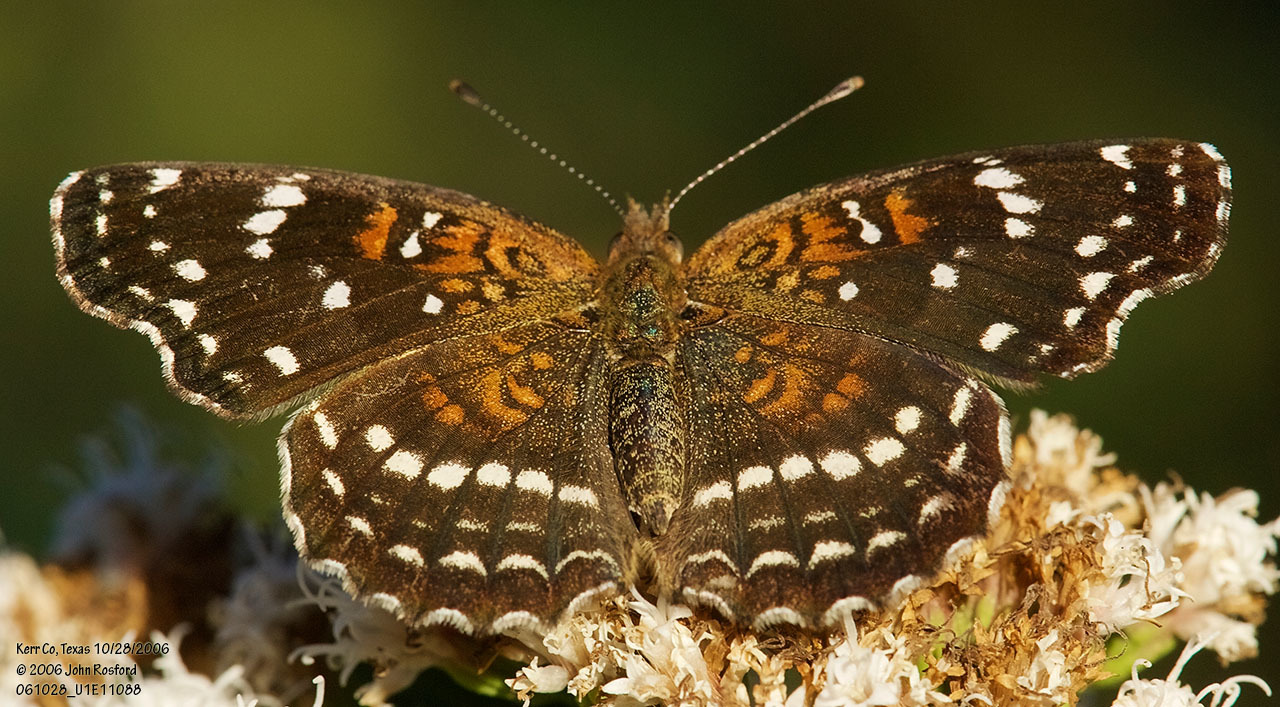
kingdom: Animalia
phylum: Arthropoda
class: Insecta
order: Lepidoptera
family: Nymphalidae
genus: Anthanassa
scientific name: Anthanassa texana
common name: Texan crescent
